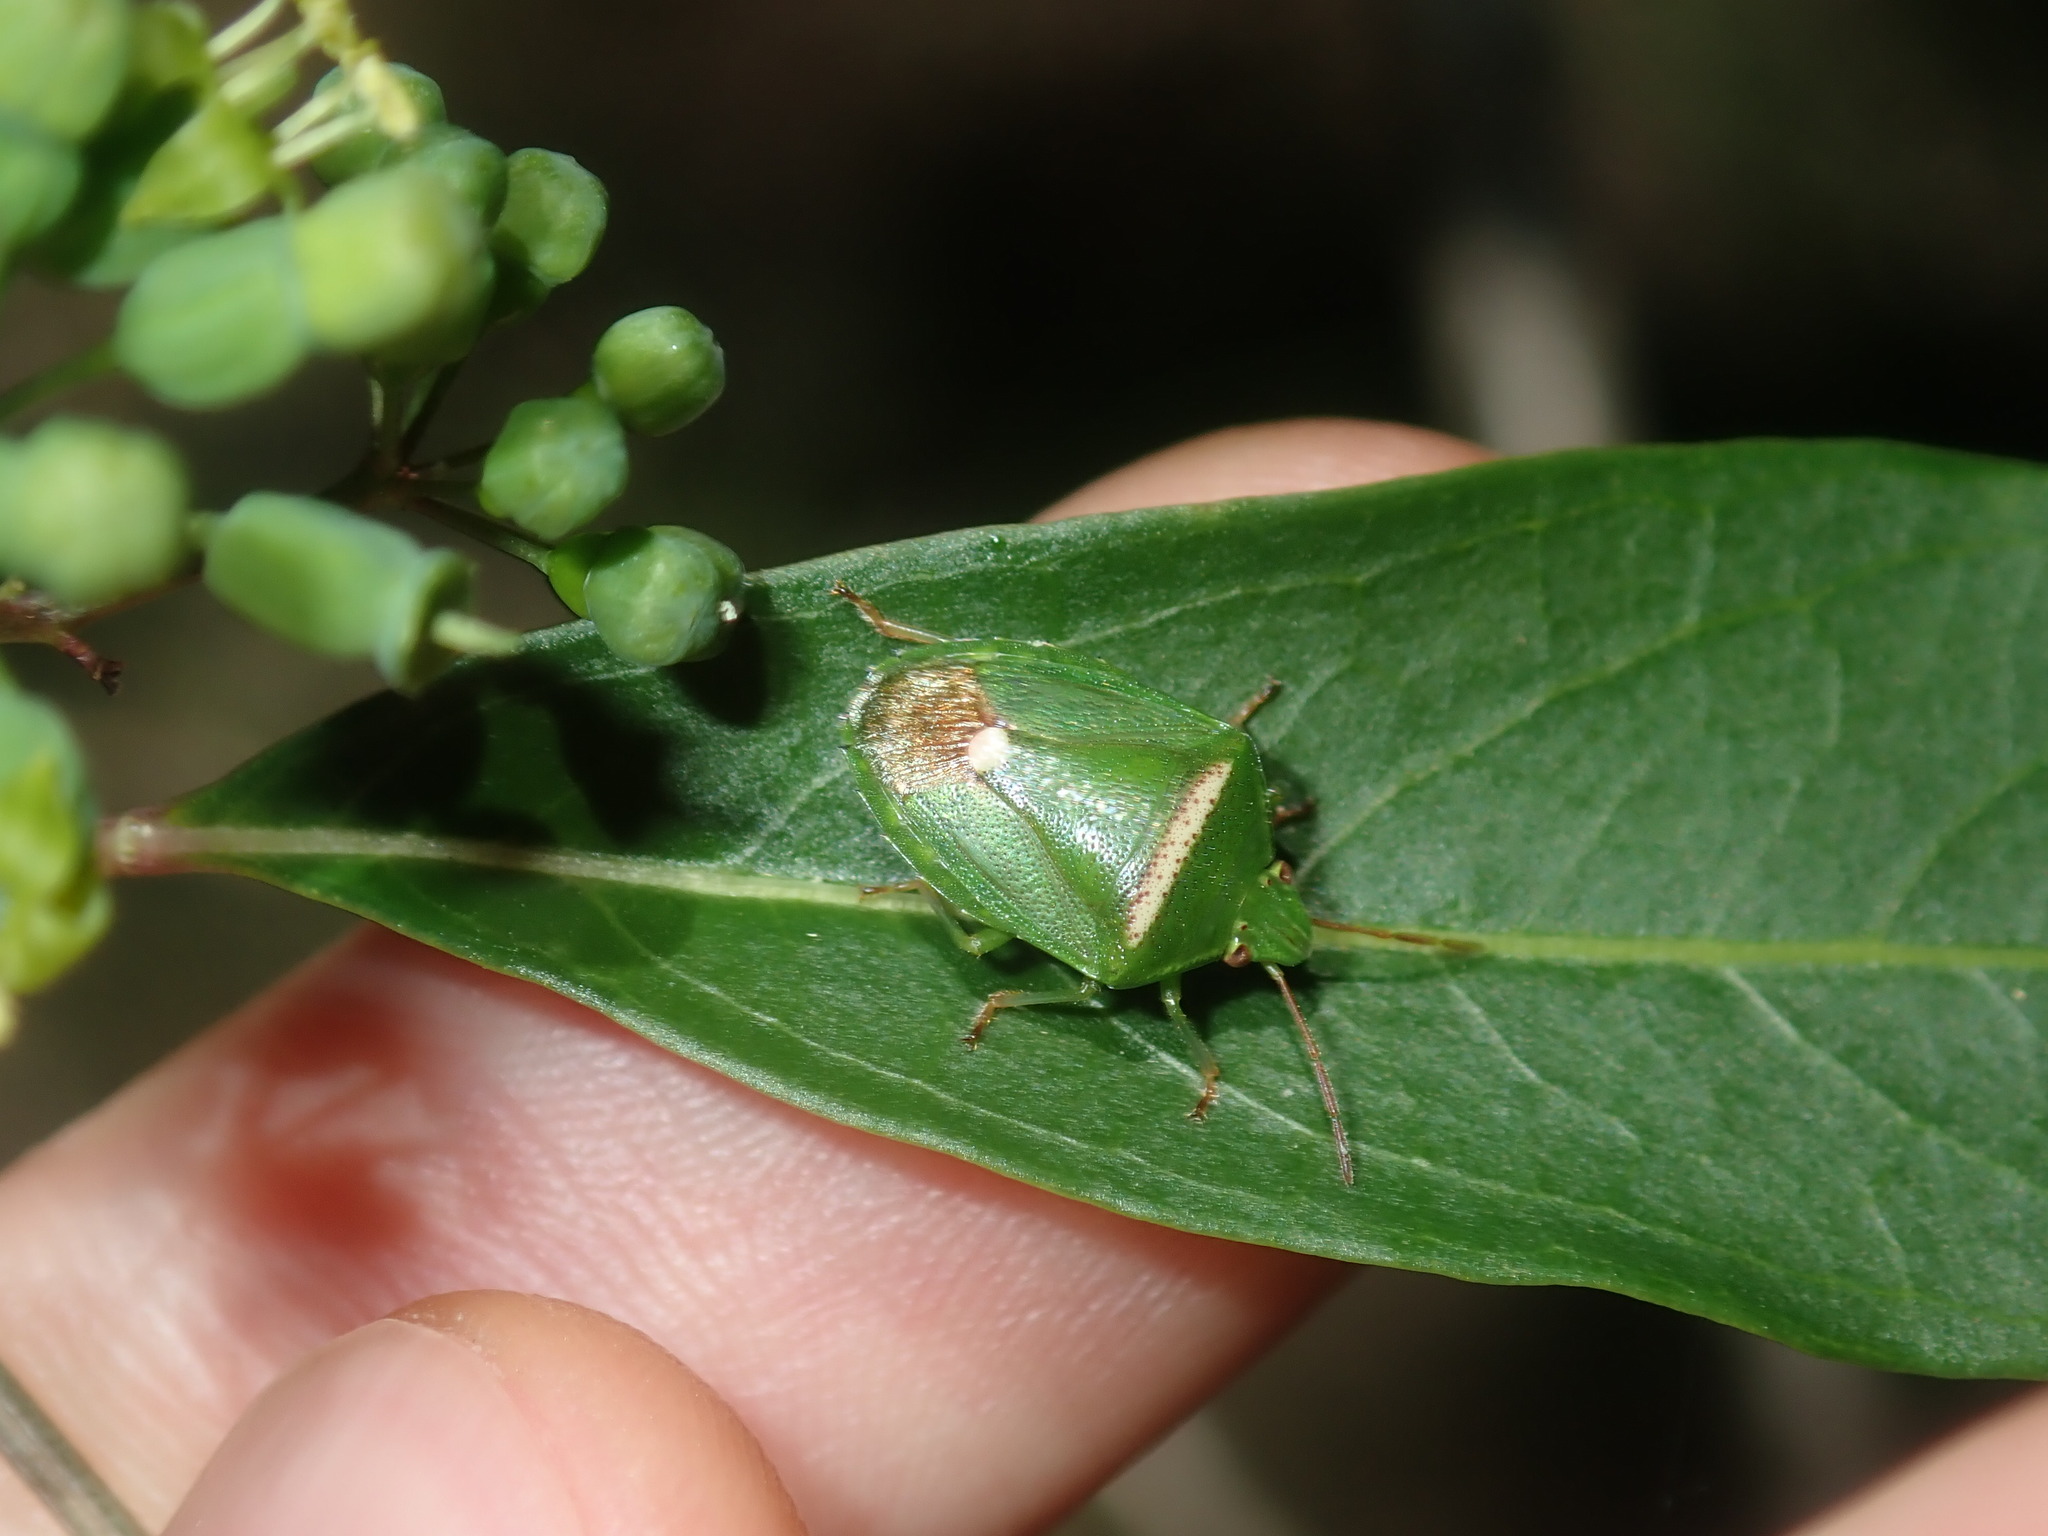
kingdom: Animalia
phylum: Arthropoda
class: Insecta
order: Hemiptera
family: Pentatomidae
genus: Ocirrhoe
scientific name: Ocirrhoe
